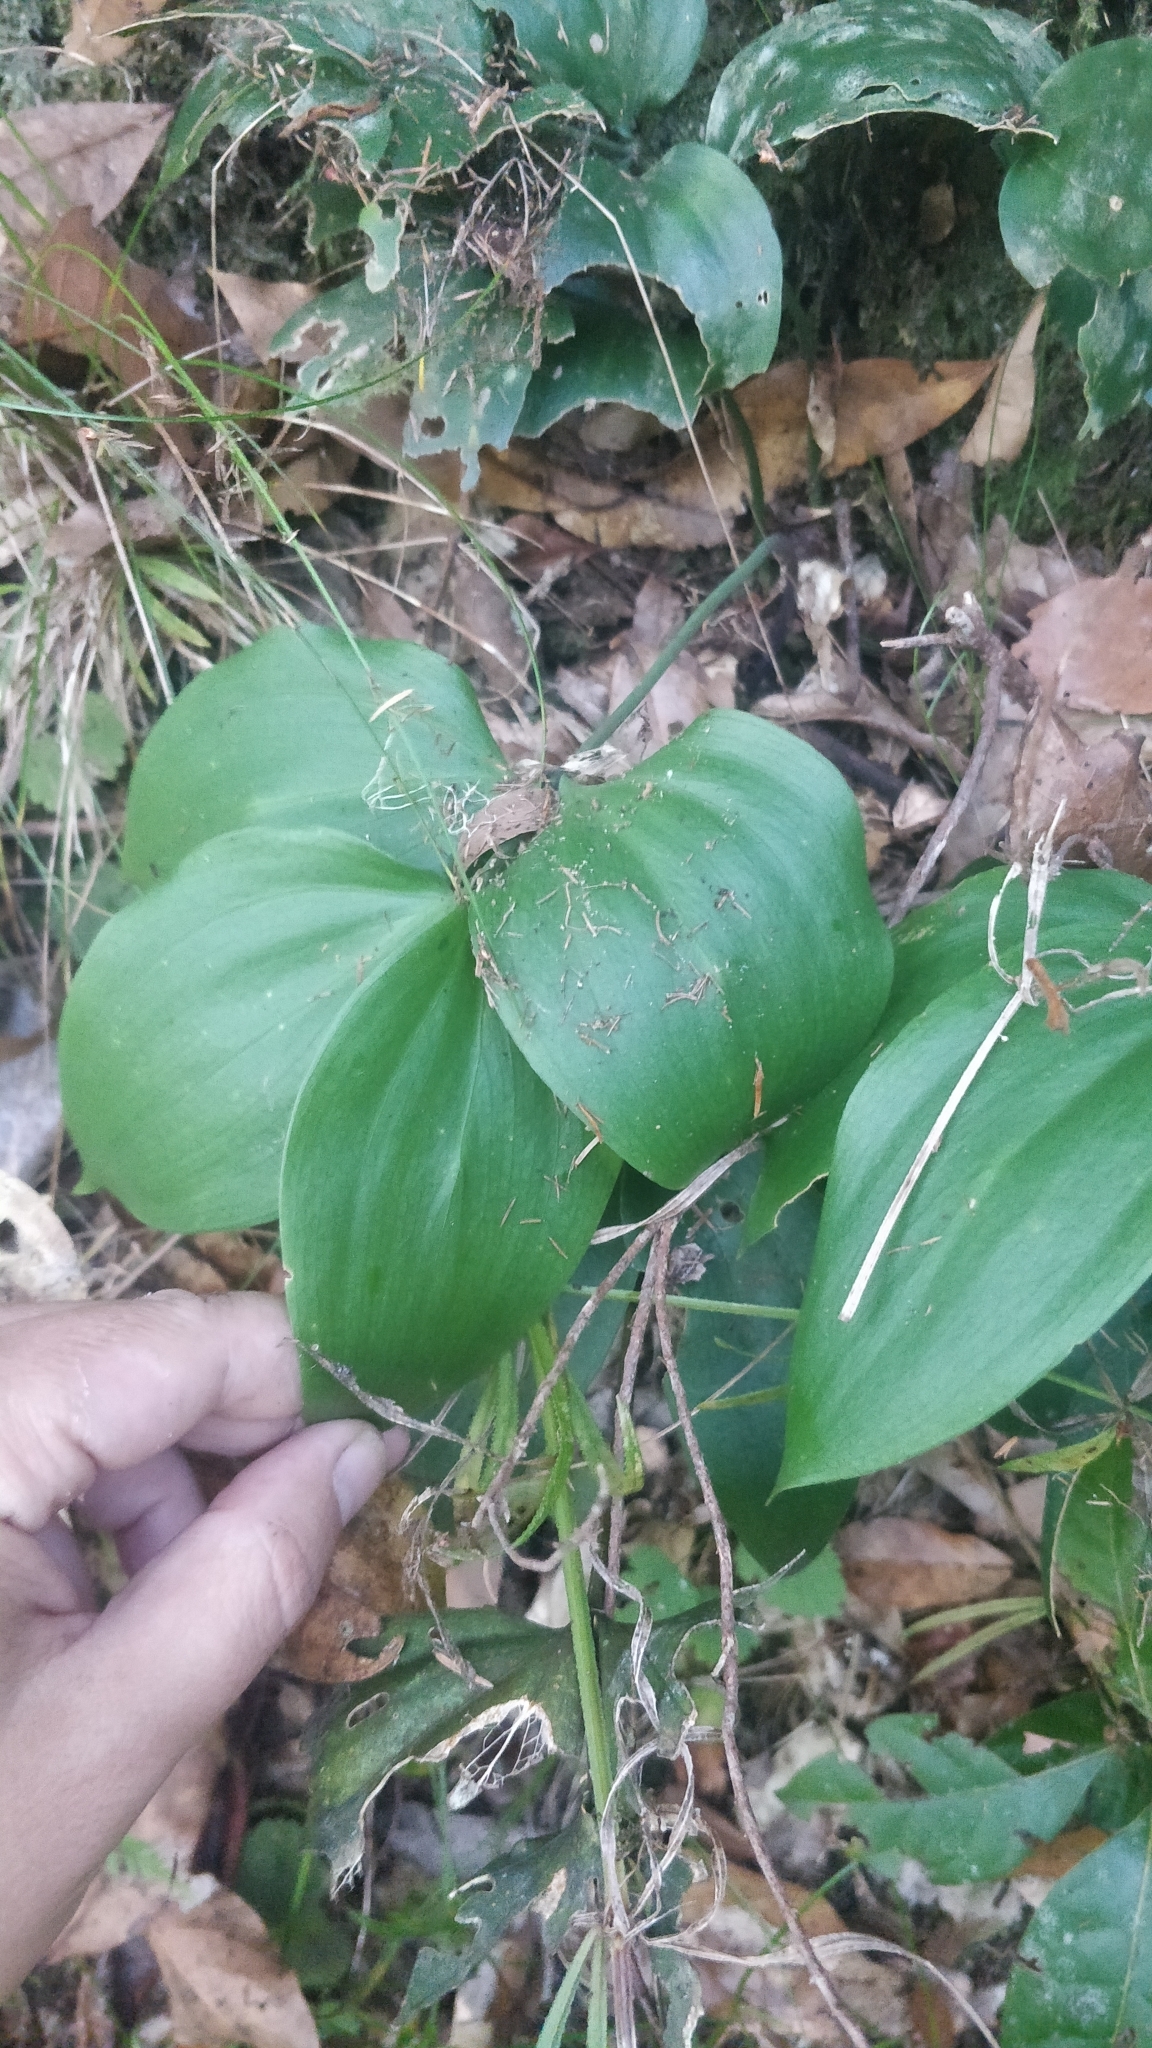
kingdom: Plantae
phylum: Tracheophyta
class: Liliopsida
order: Asparagales
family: Asparagaceae
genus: Ruscus
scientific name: Ruscus streptophyllus
